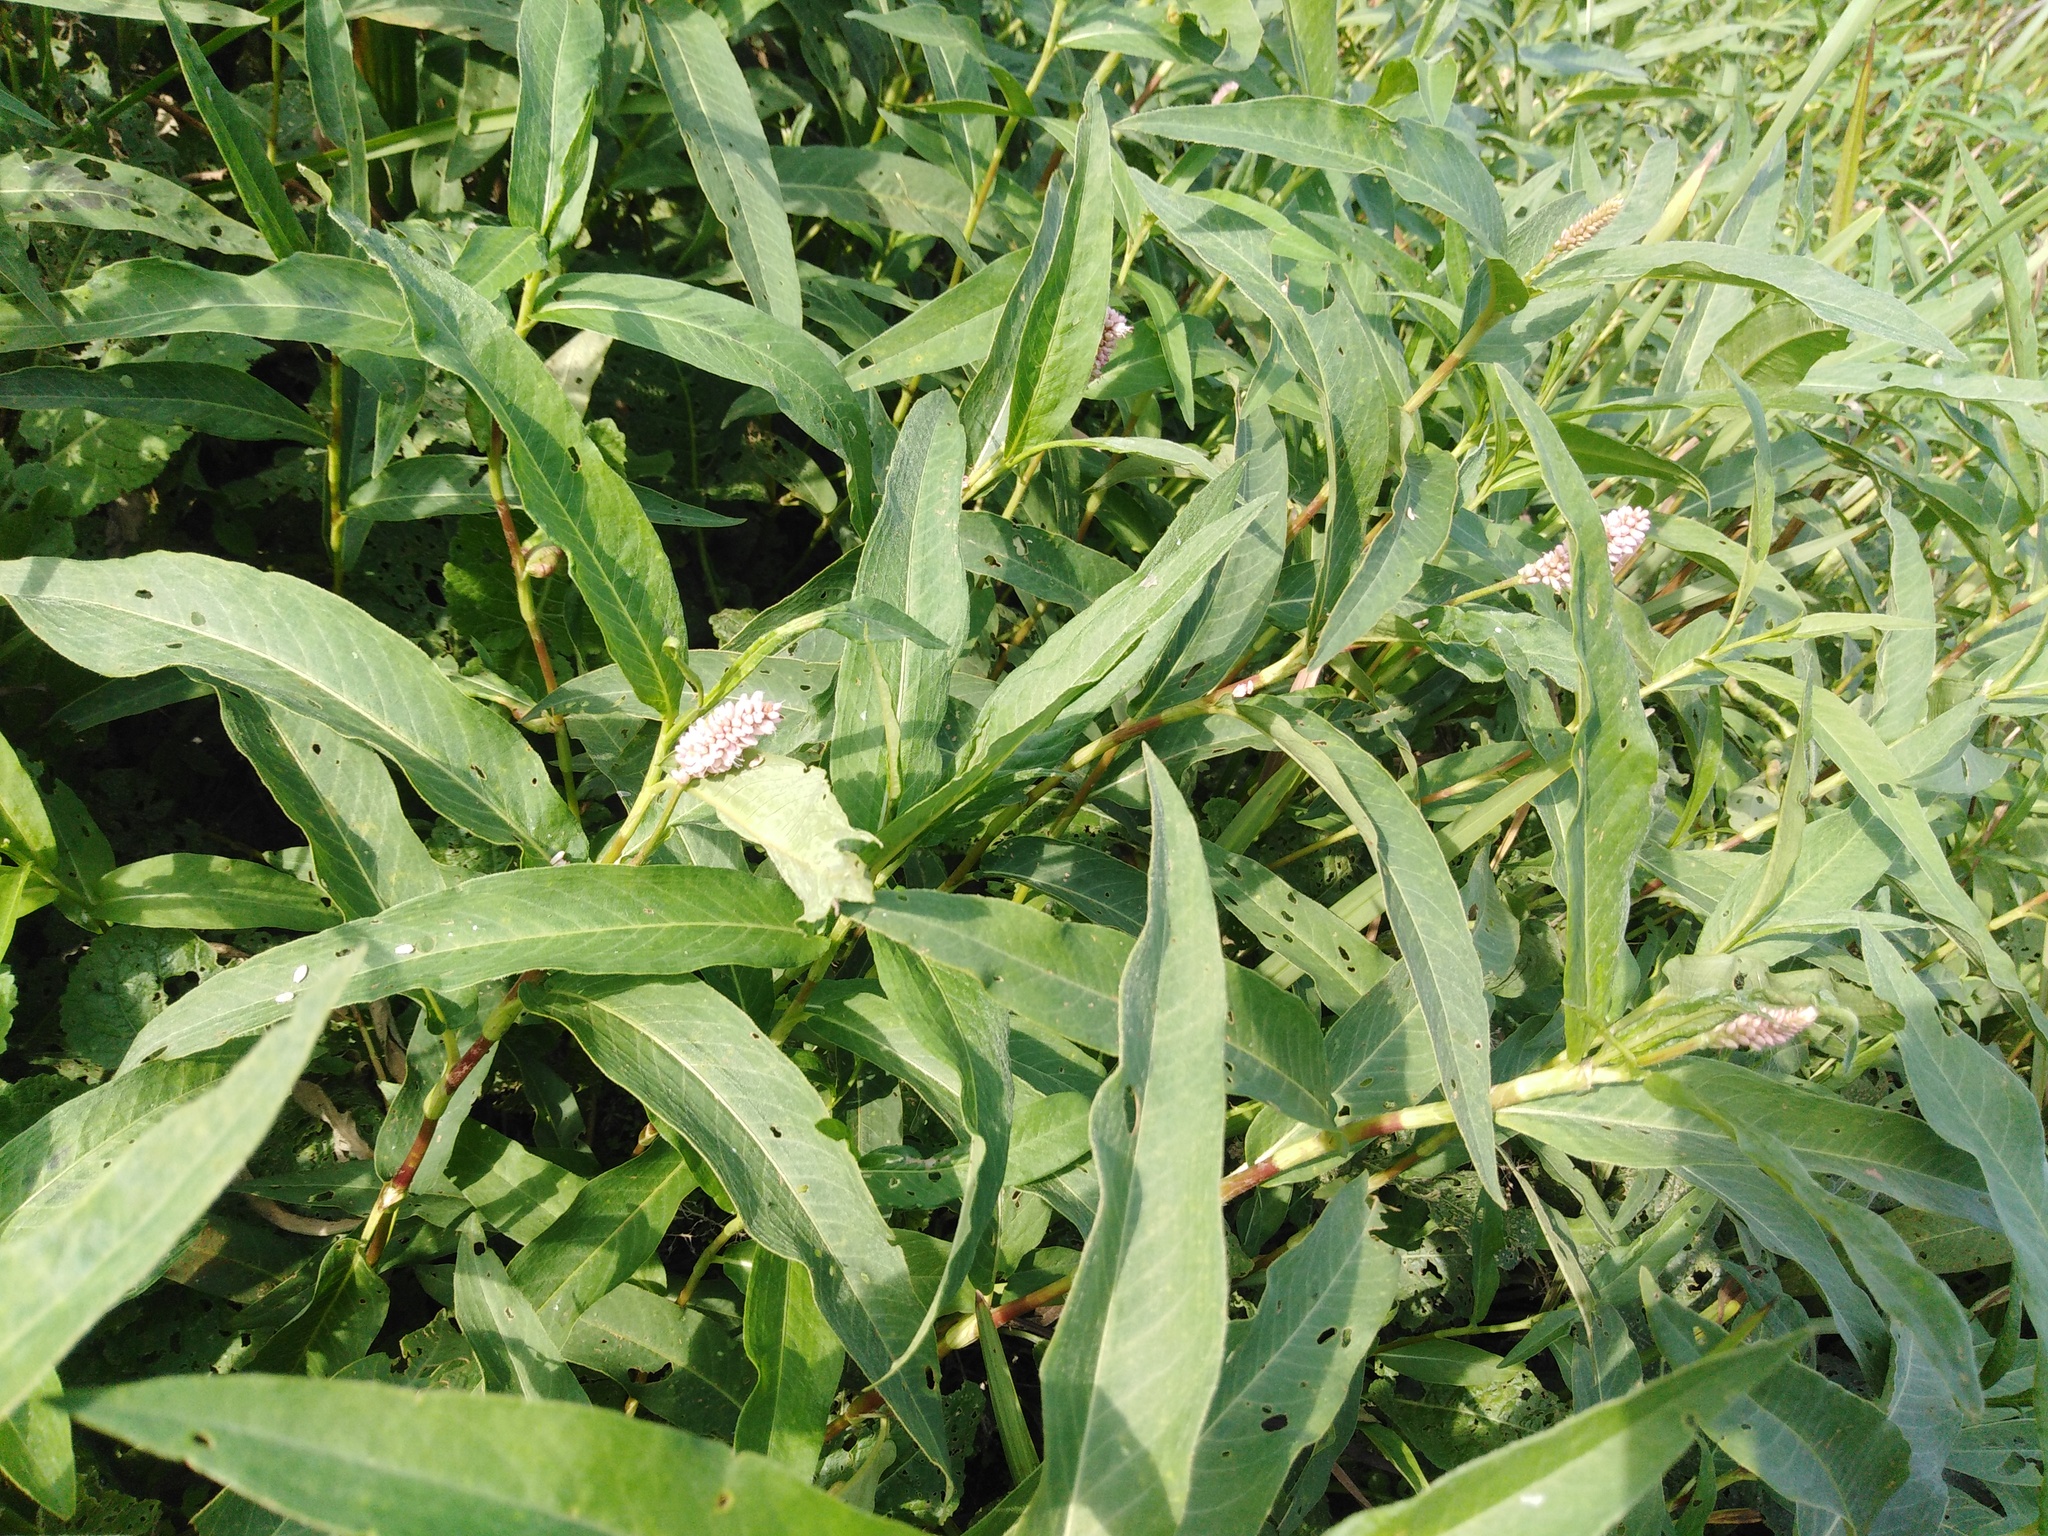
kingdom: Plantae
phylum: Tracheophyta
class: Magnoliopsida
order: Caryophyllales
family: Polygonaceae
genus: Persicaria
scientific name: Persicaria amphibia
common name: Amphibious bistort
